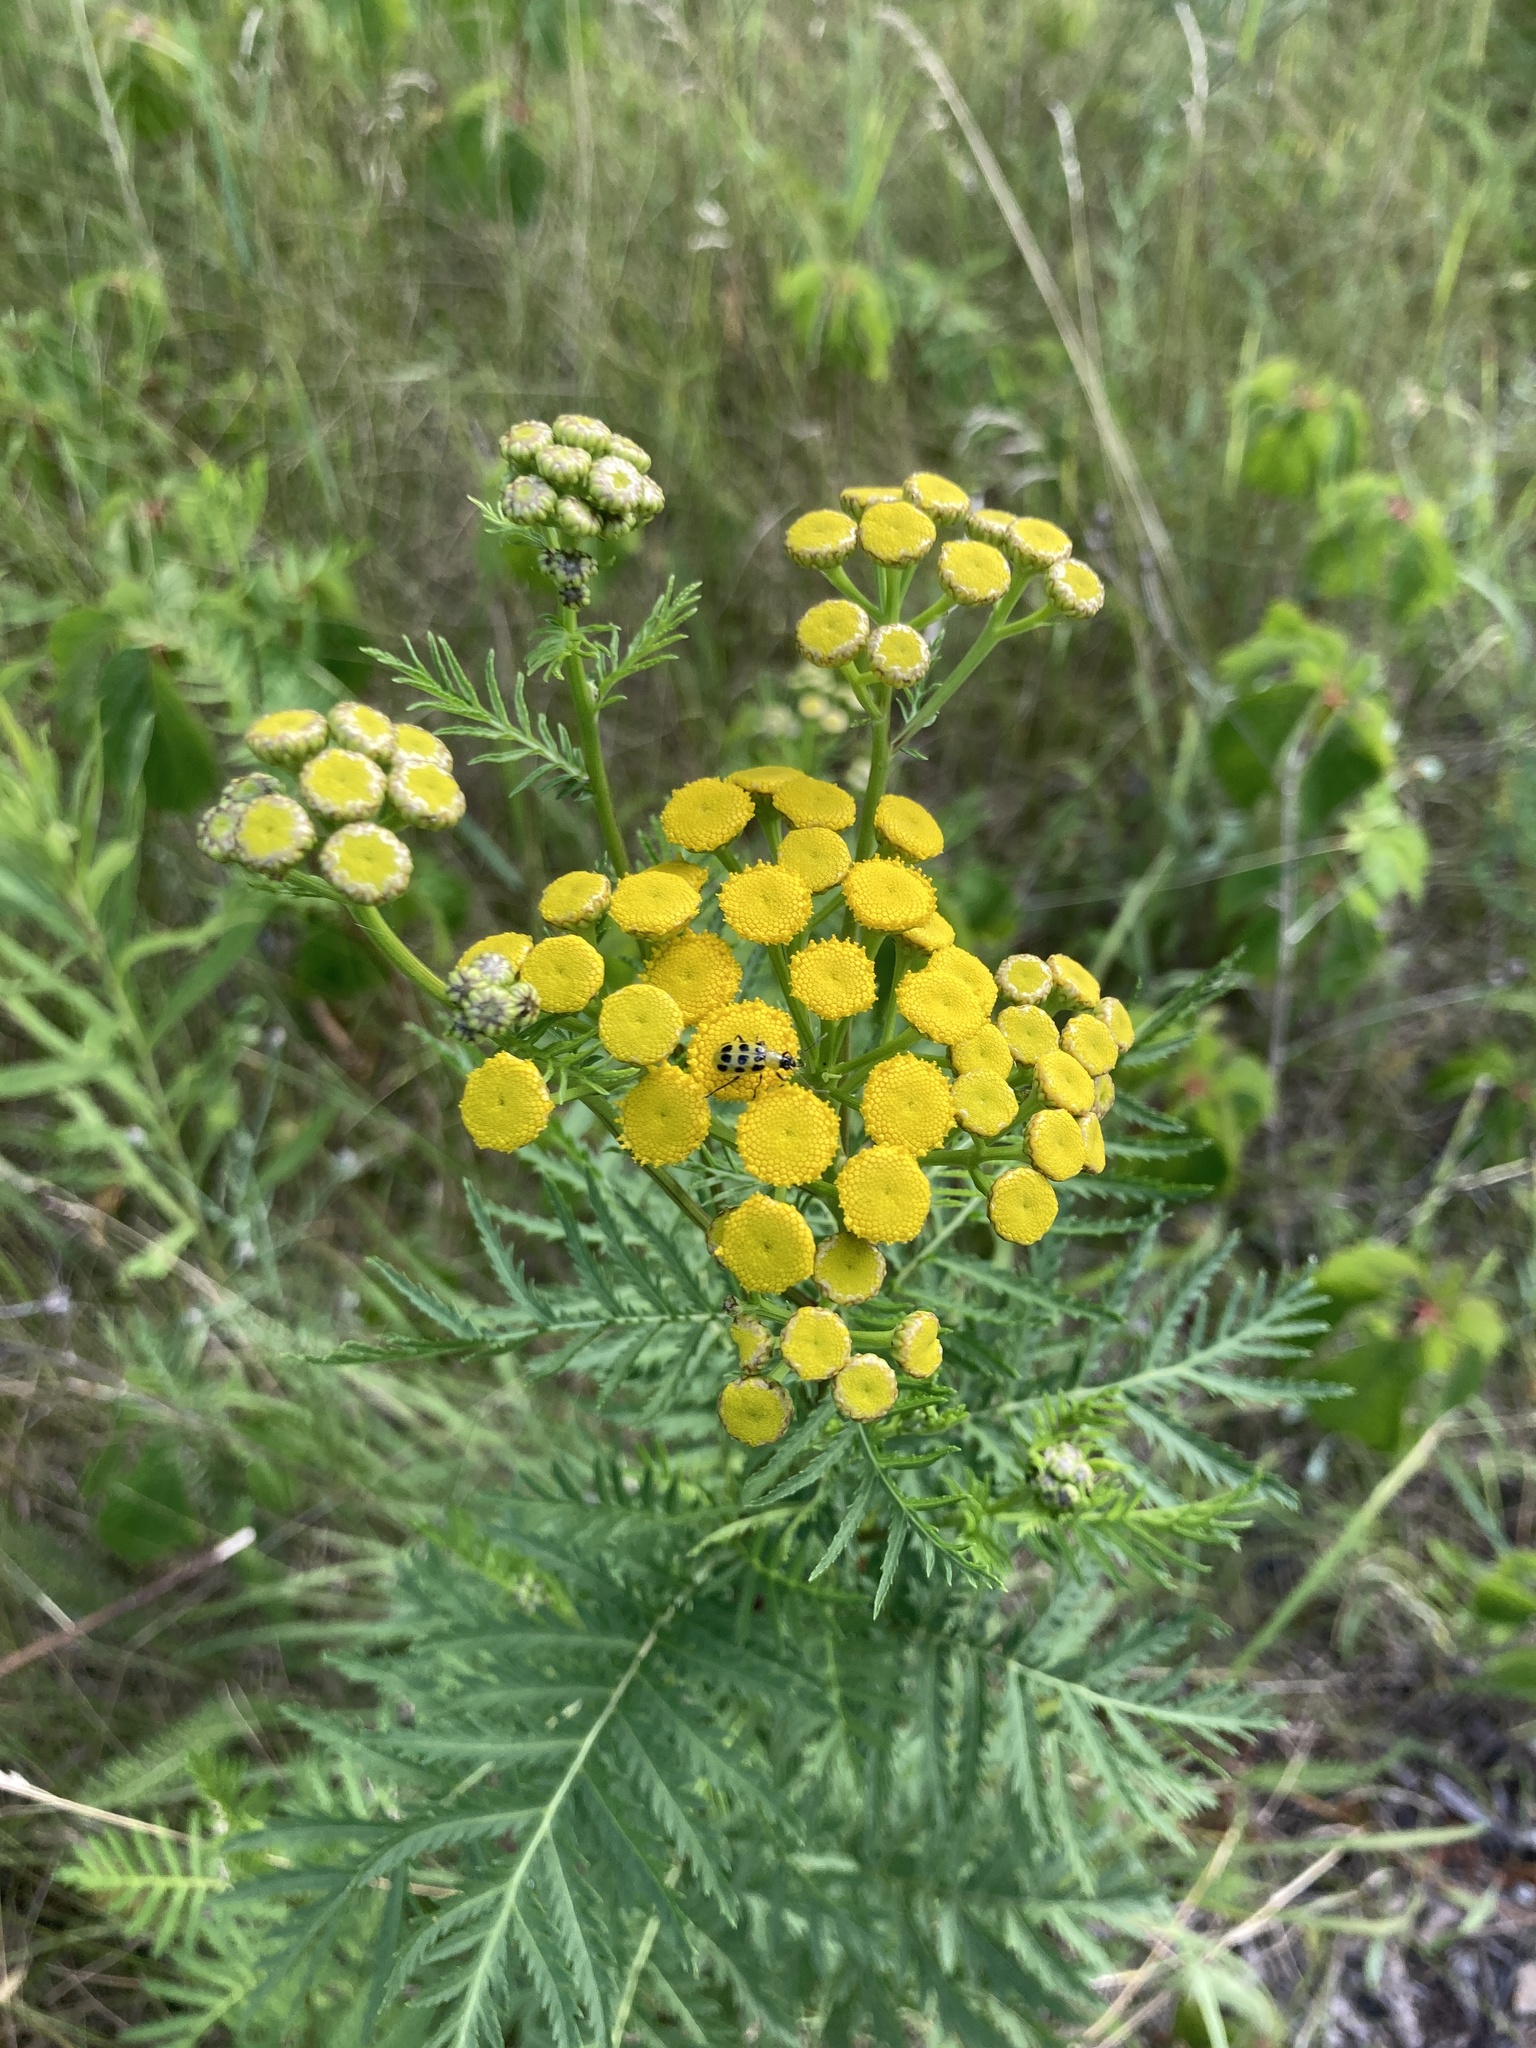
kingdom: Plantae
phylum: Tracheophyta
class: Magnoliopsida
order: Asterales
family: Asteraceae
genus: Tanacetum
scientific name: Tanacetum vulgare
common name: Common tansy
